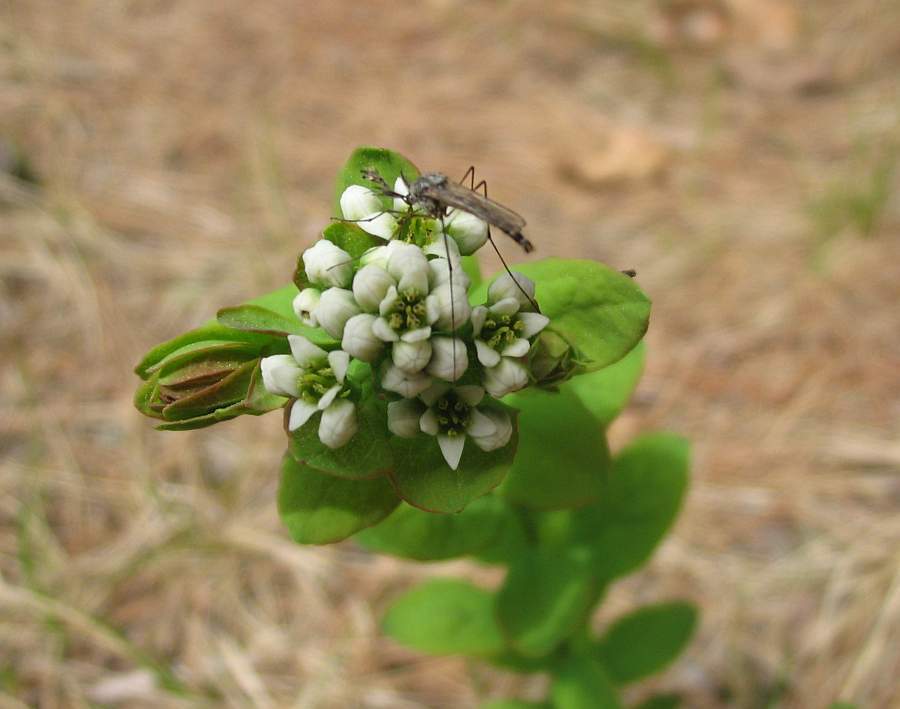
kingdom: Plantae
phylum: Tracheophyta
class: Magnoliopsida
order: Santalales
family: Comandraceae
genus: Comandra
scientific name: Comandra umbellata
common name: Bastard toadflax
